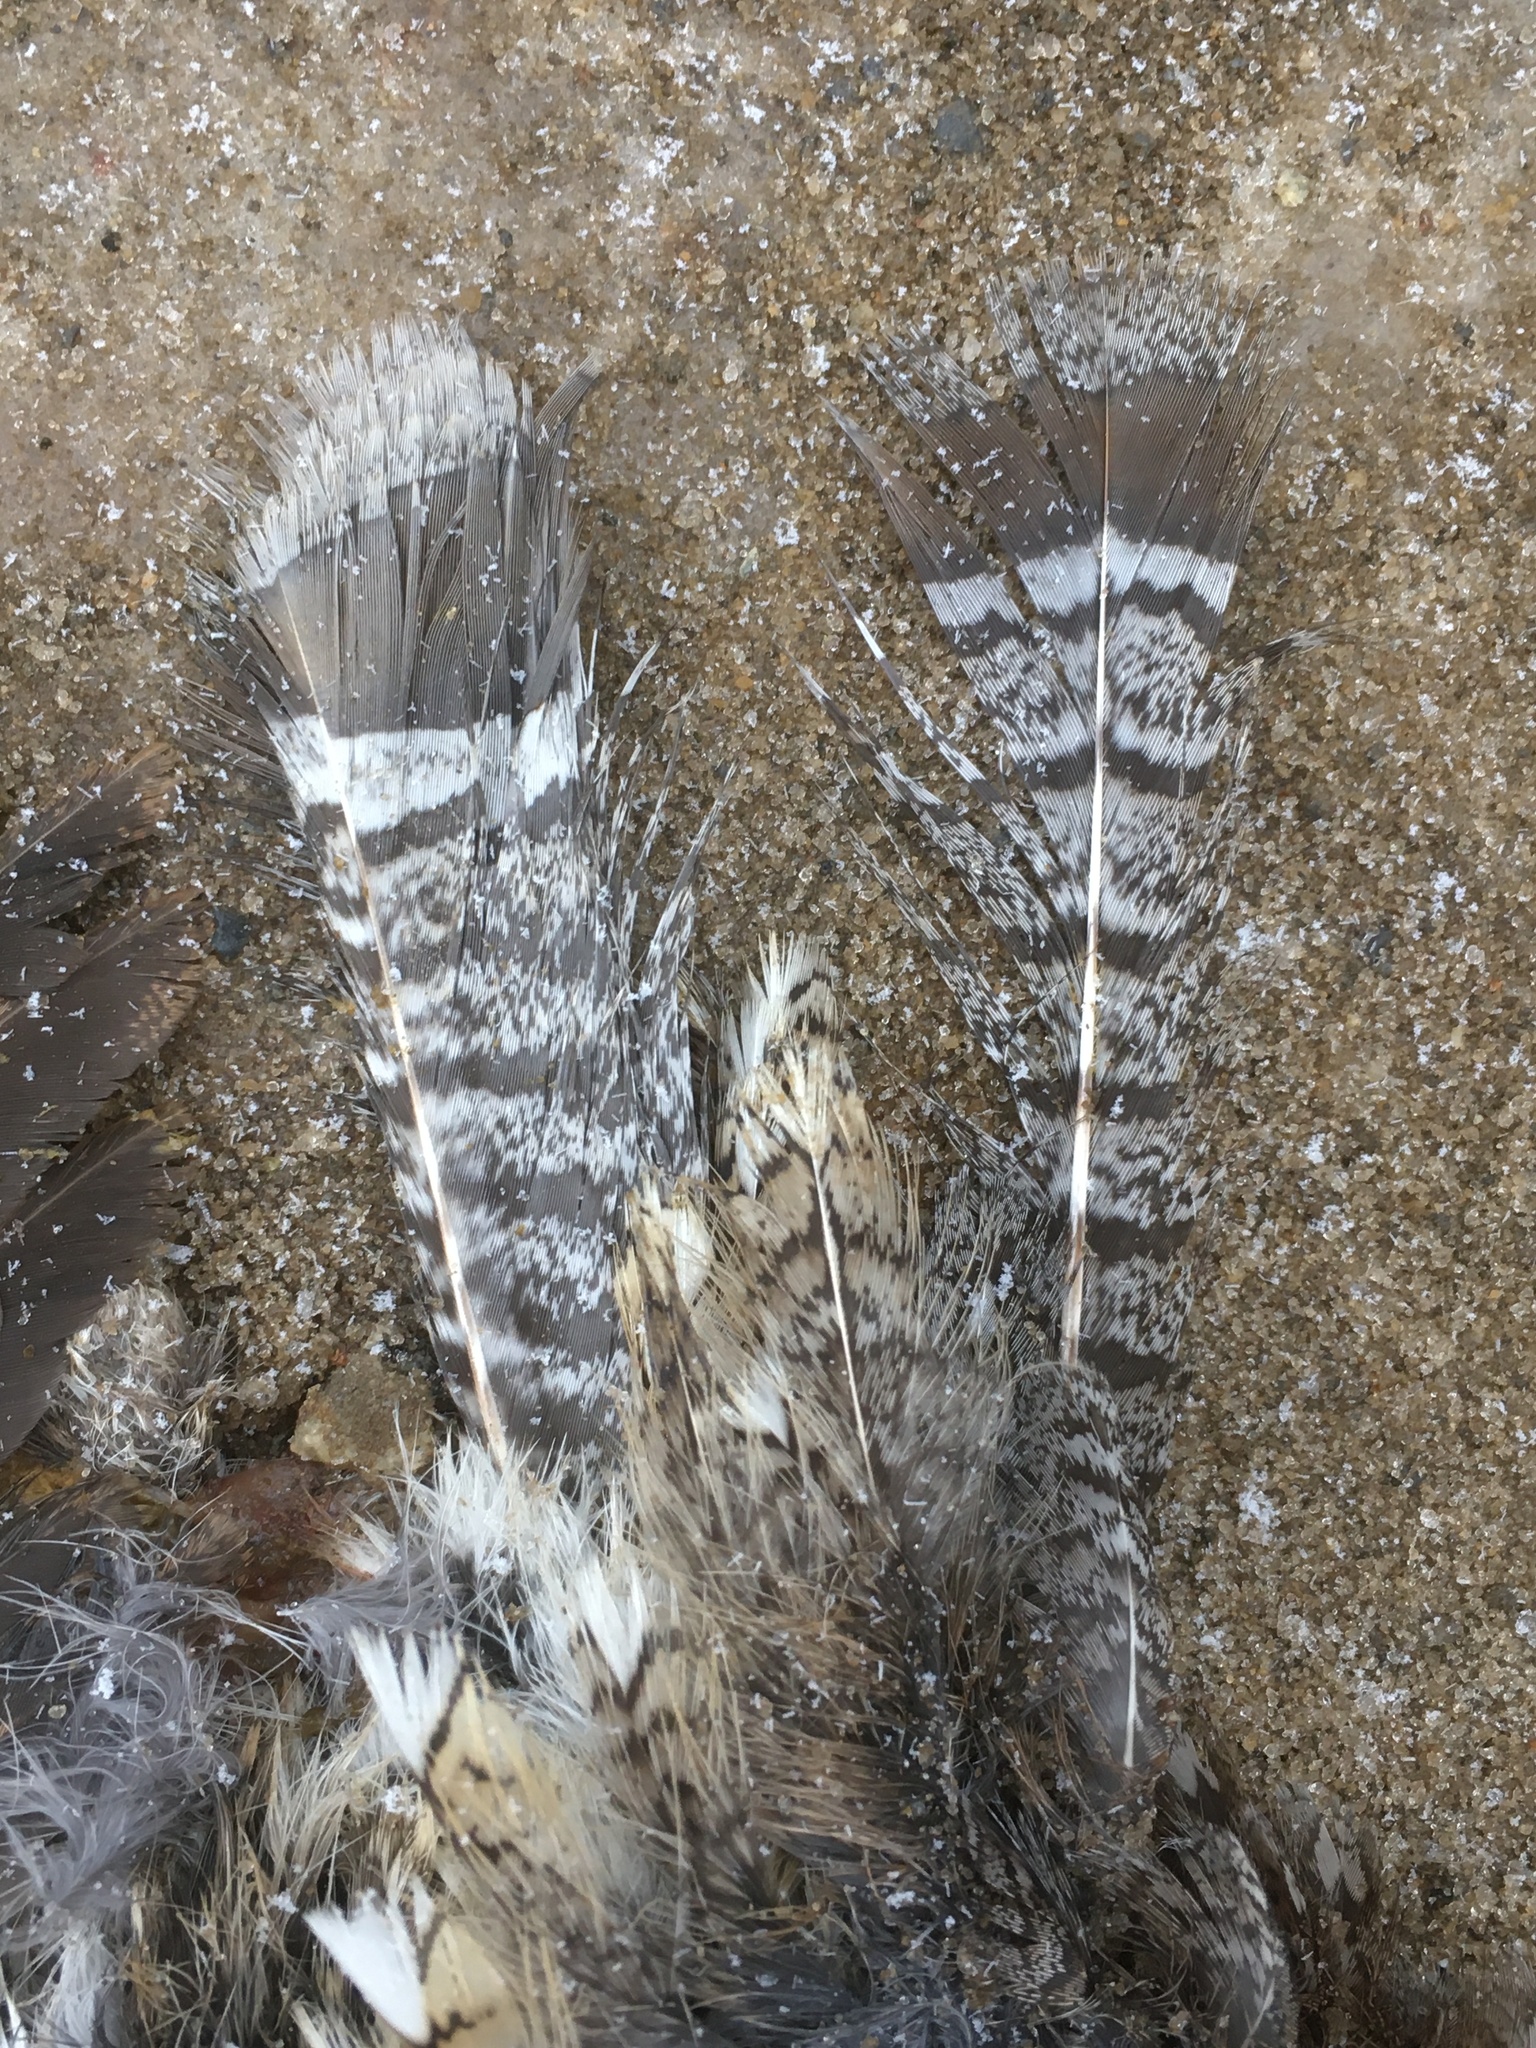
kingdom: Animalia
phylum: Chordata
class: Aves
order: Galliformes
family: Phasianidae
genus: Bonasa
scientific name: Bonasa umbellus
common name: Ruffed grouse
